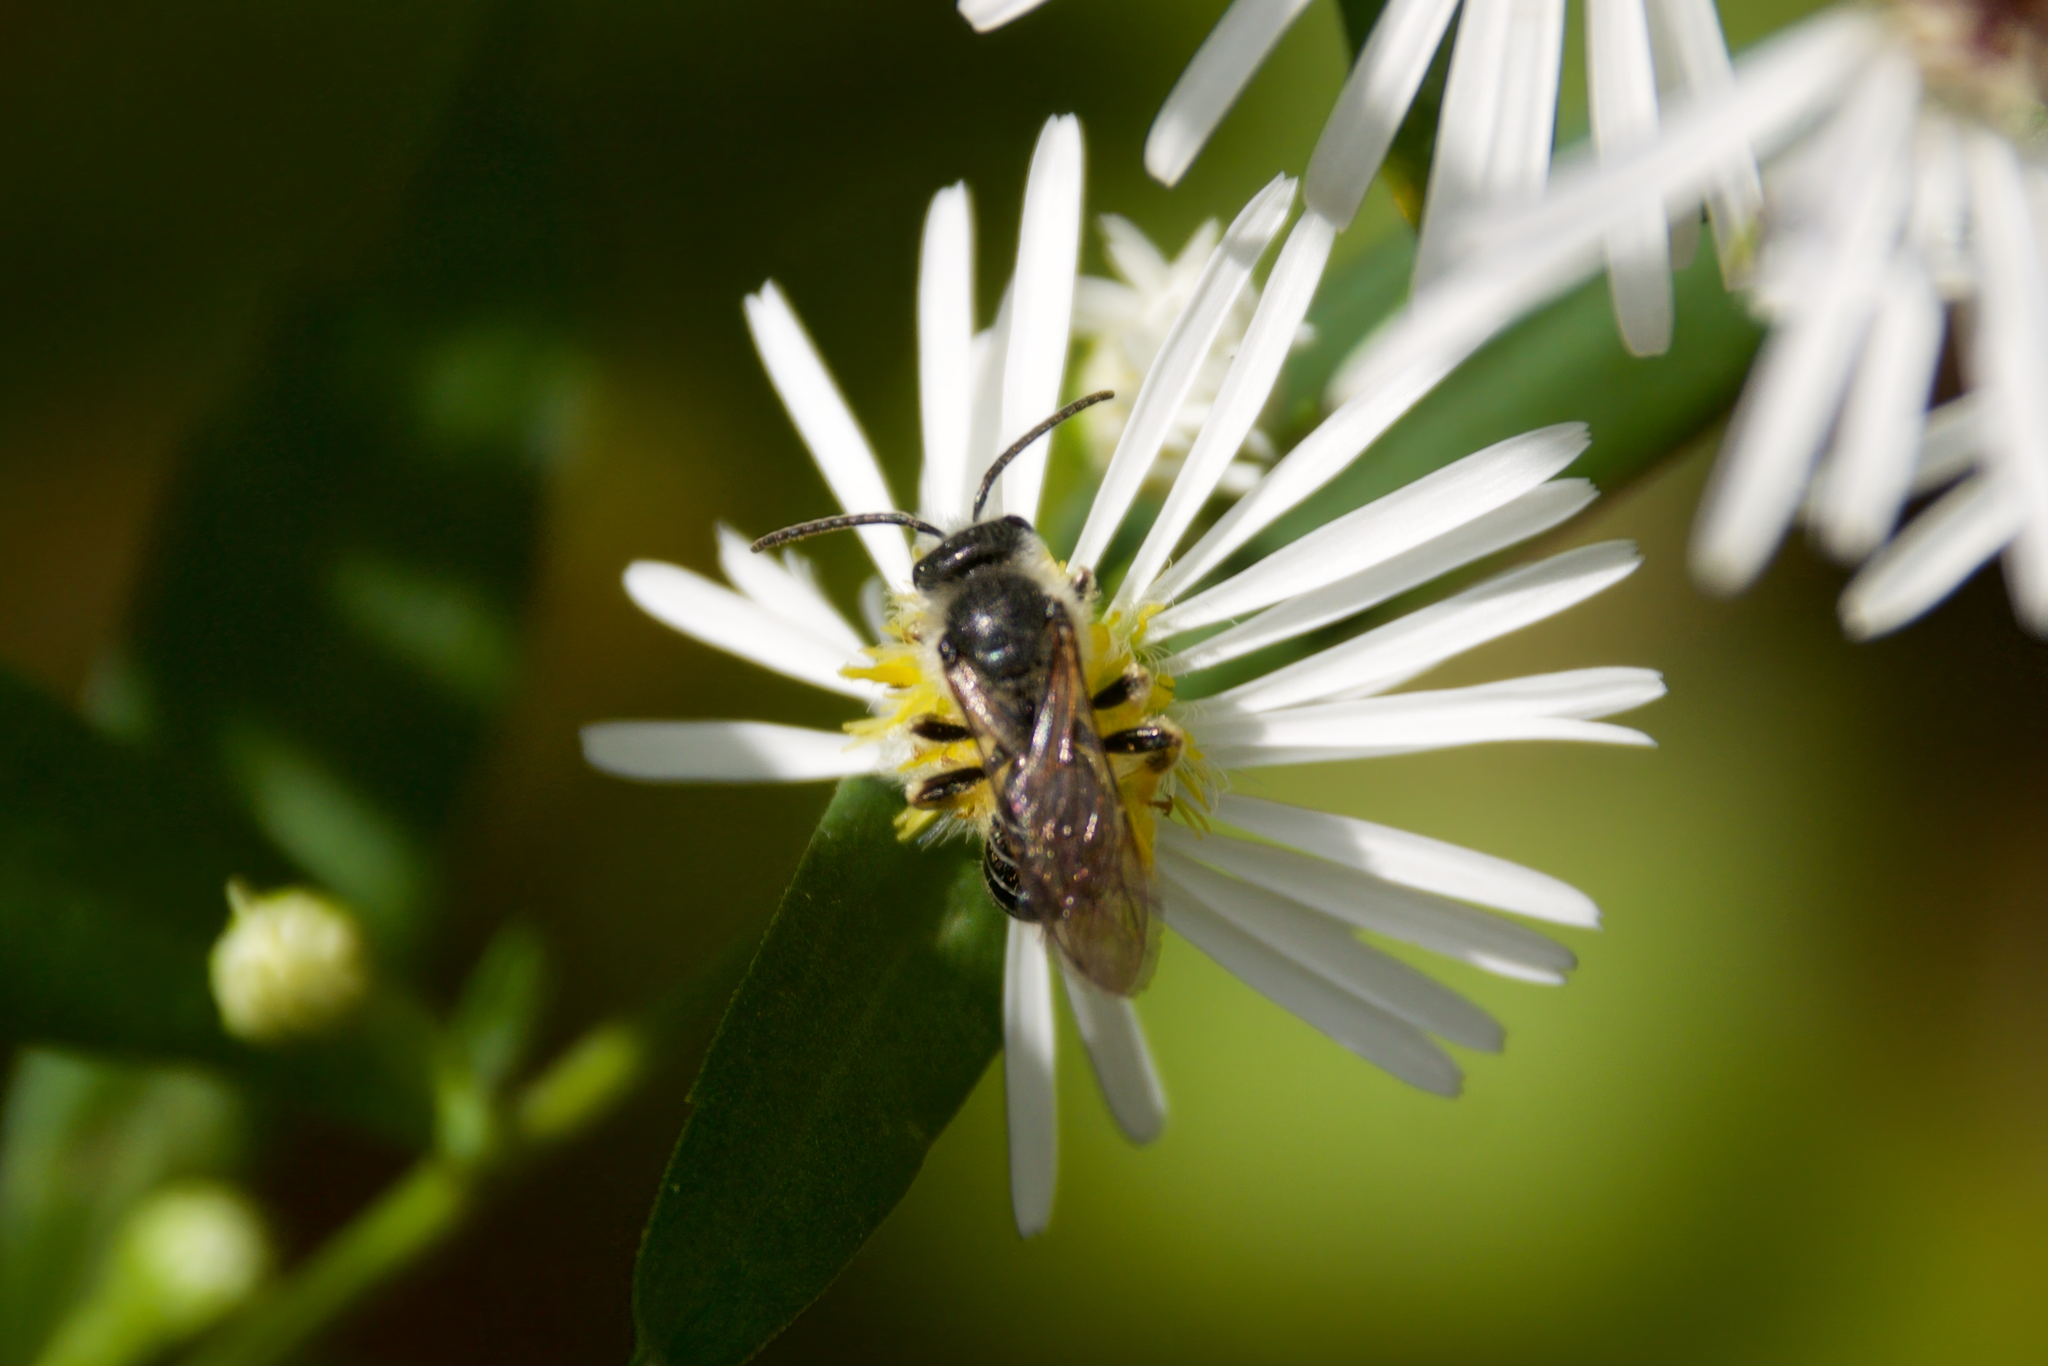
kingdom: Animalia
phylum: Arthropoda
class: Insecta
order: Hymenoptera
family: Halictidae
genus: Halictus
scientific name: Halictus rubicundus
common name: Orange-legged furrow bee
